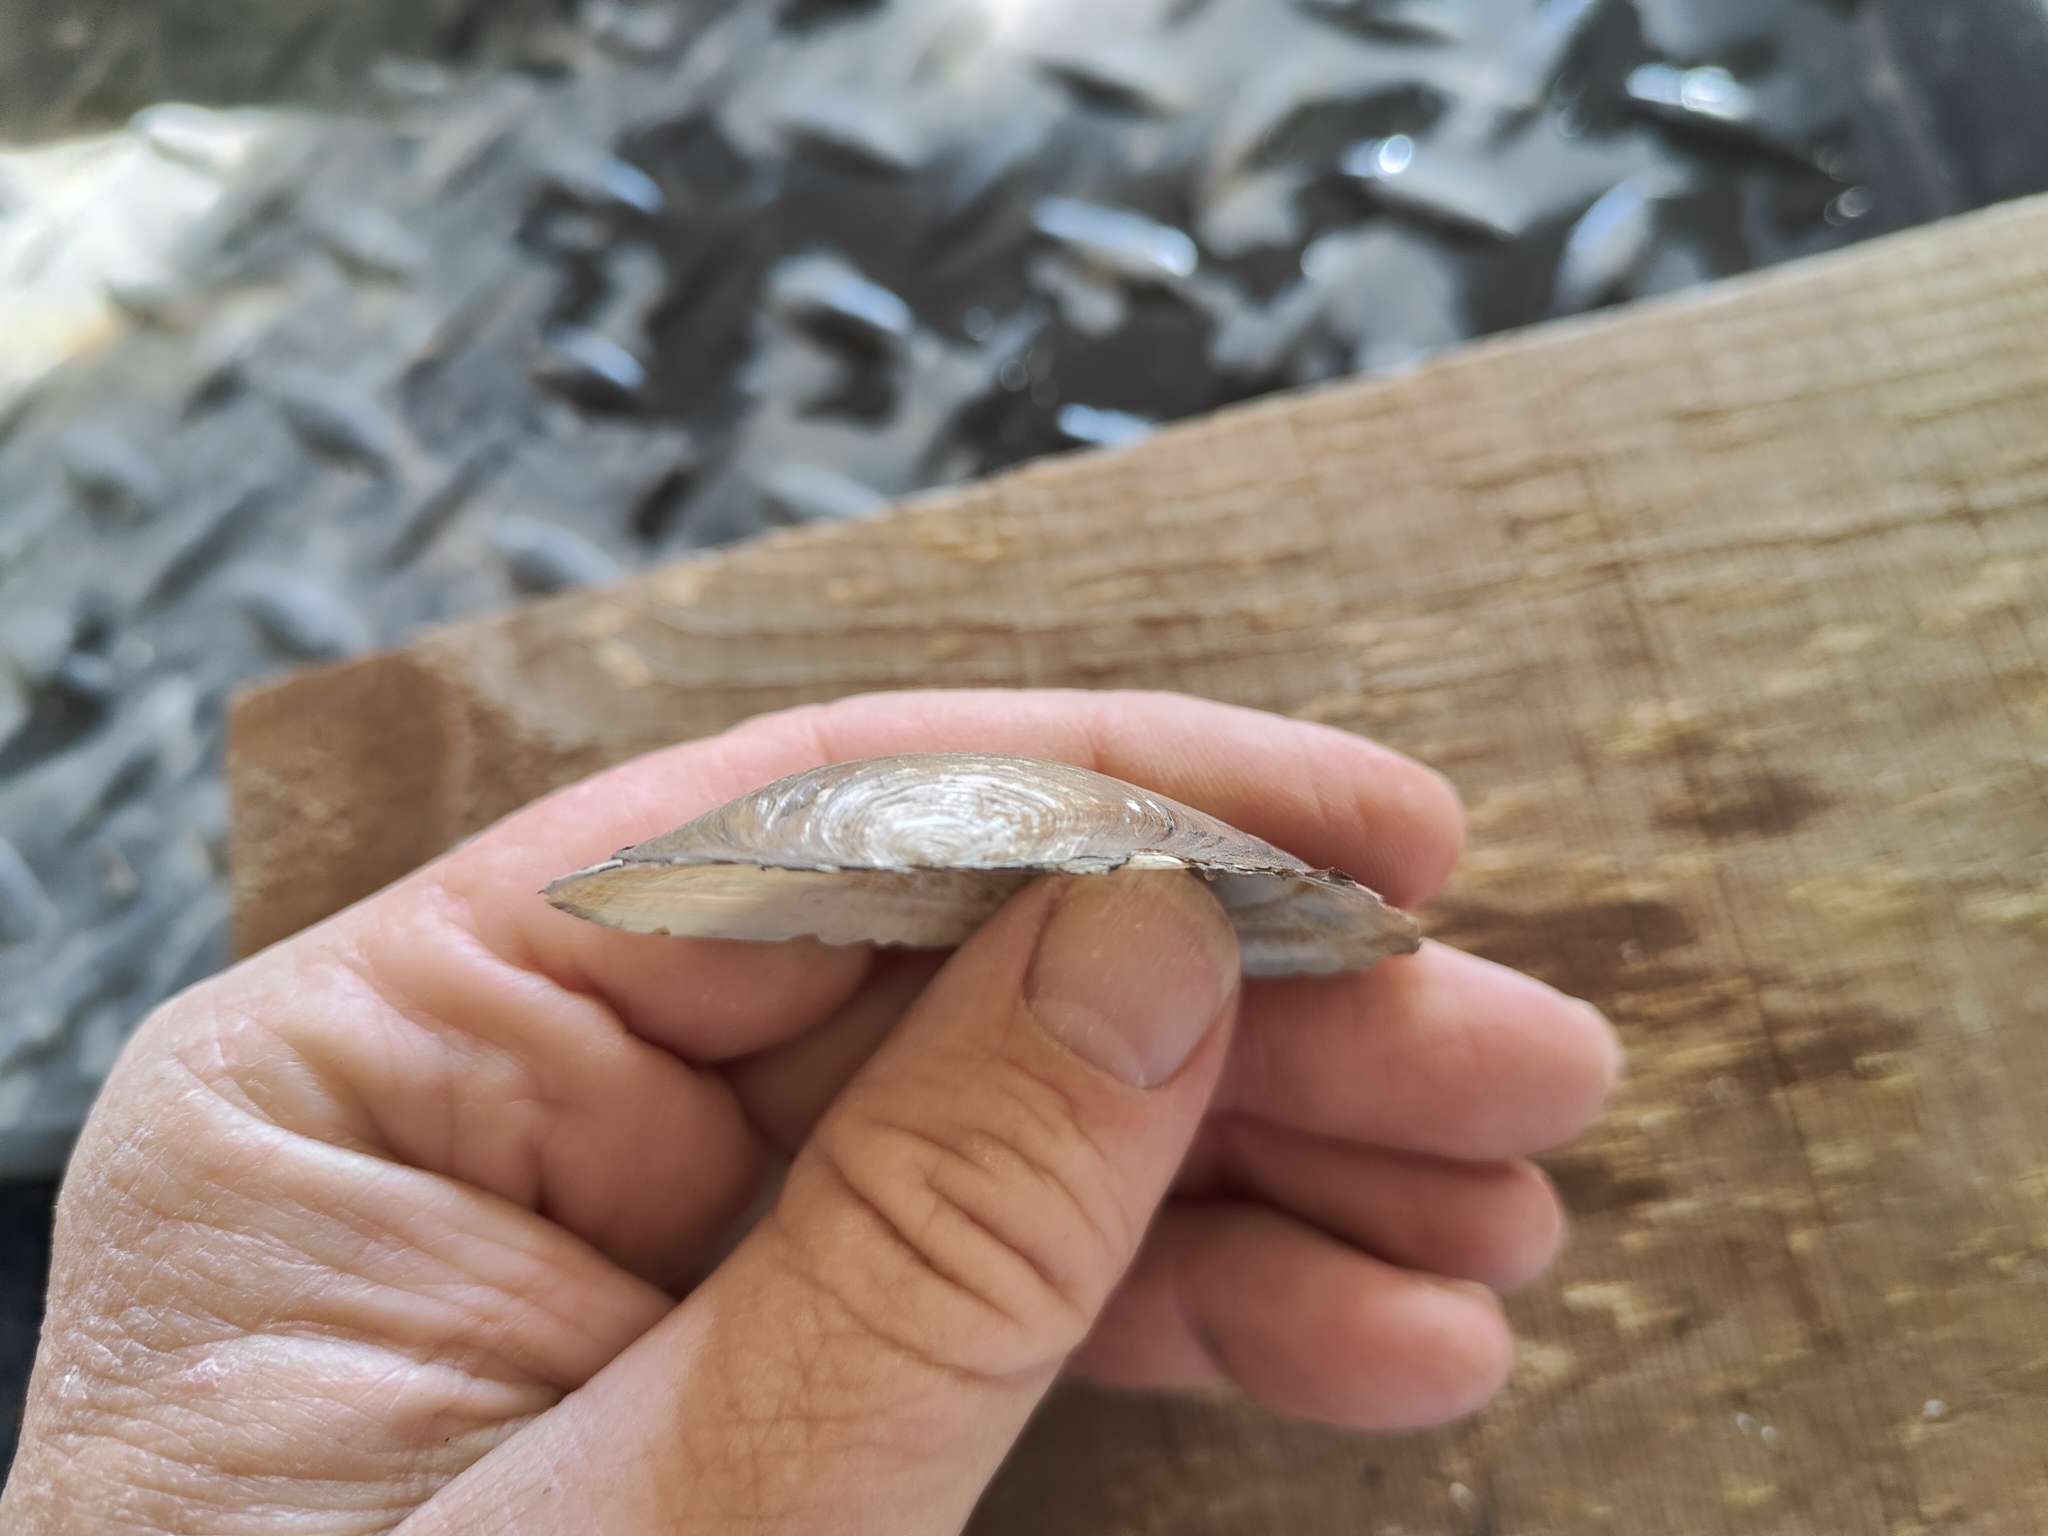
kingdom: Animalia
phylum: Mollusca
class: Bivalvia
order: Unionida
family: Unionidae
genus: Utterbackia
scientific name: Utterbackia imbecillis
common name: Paper pondshell
